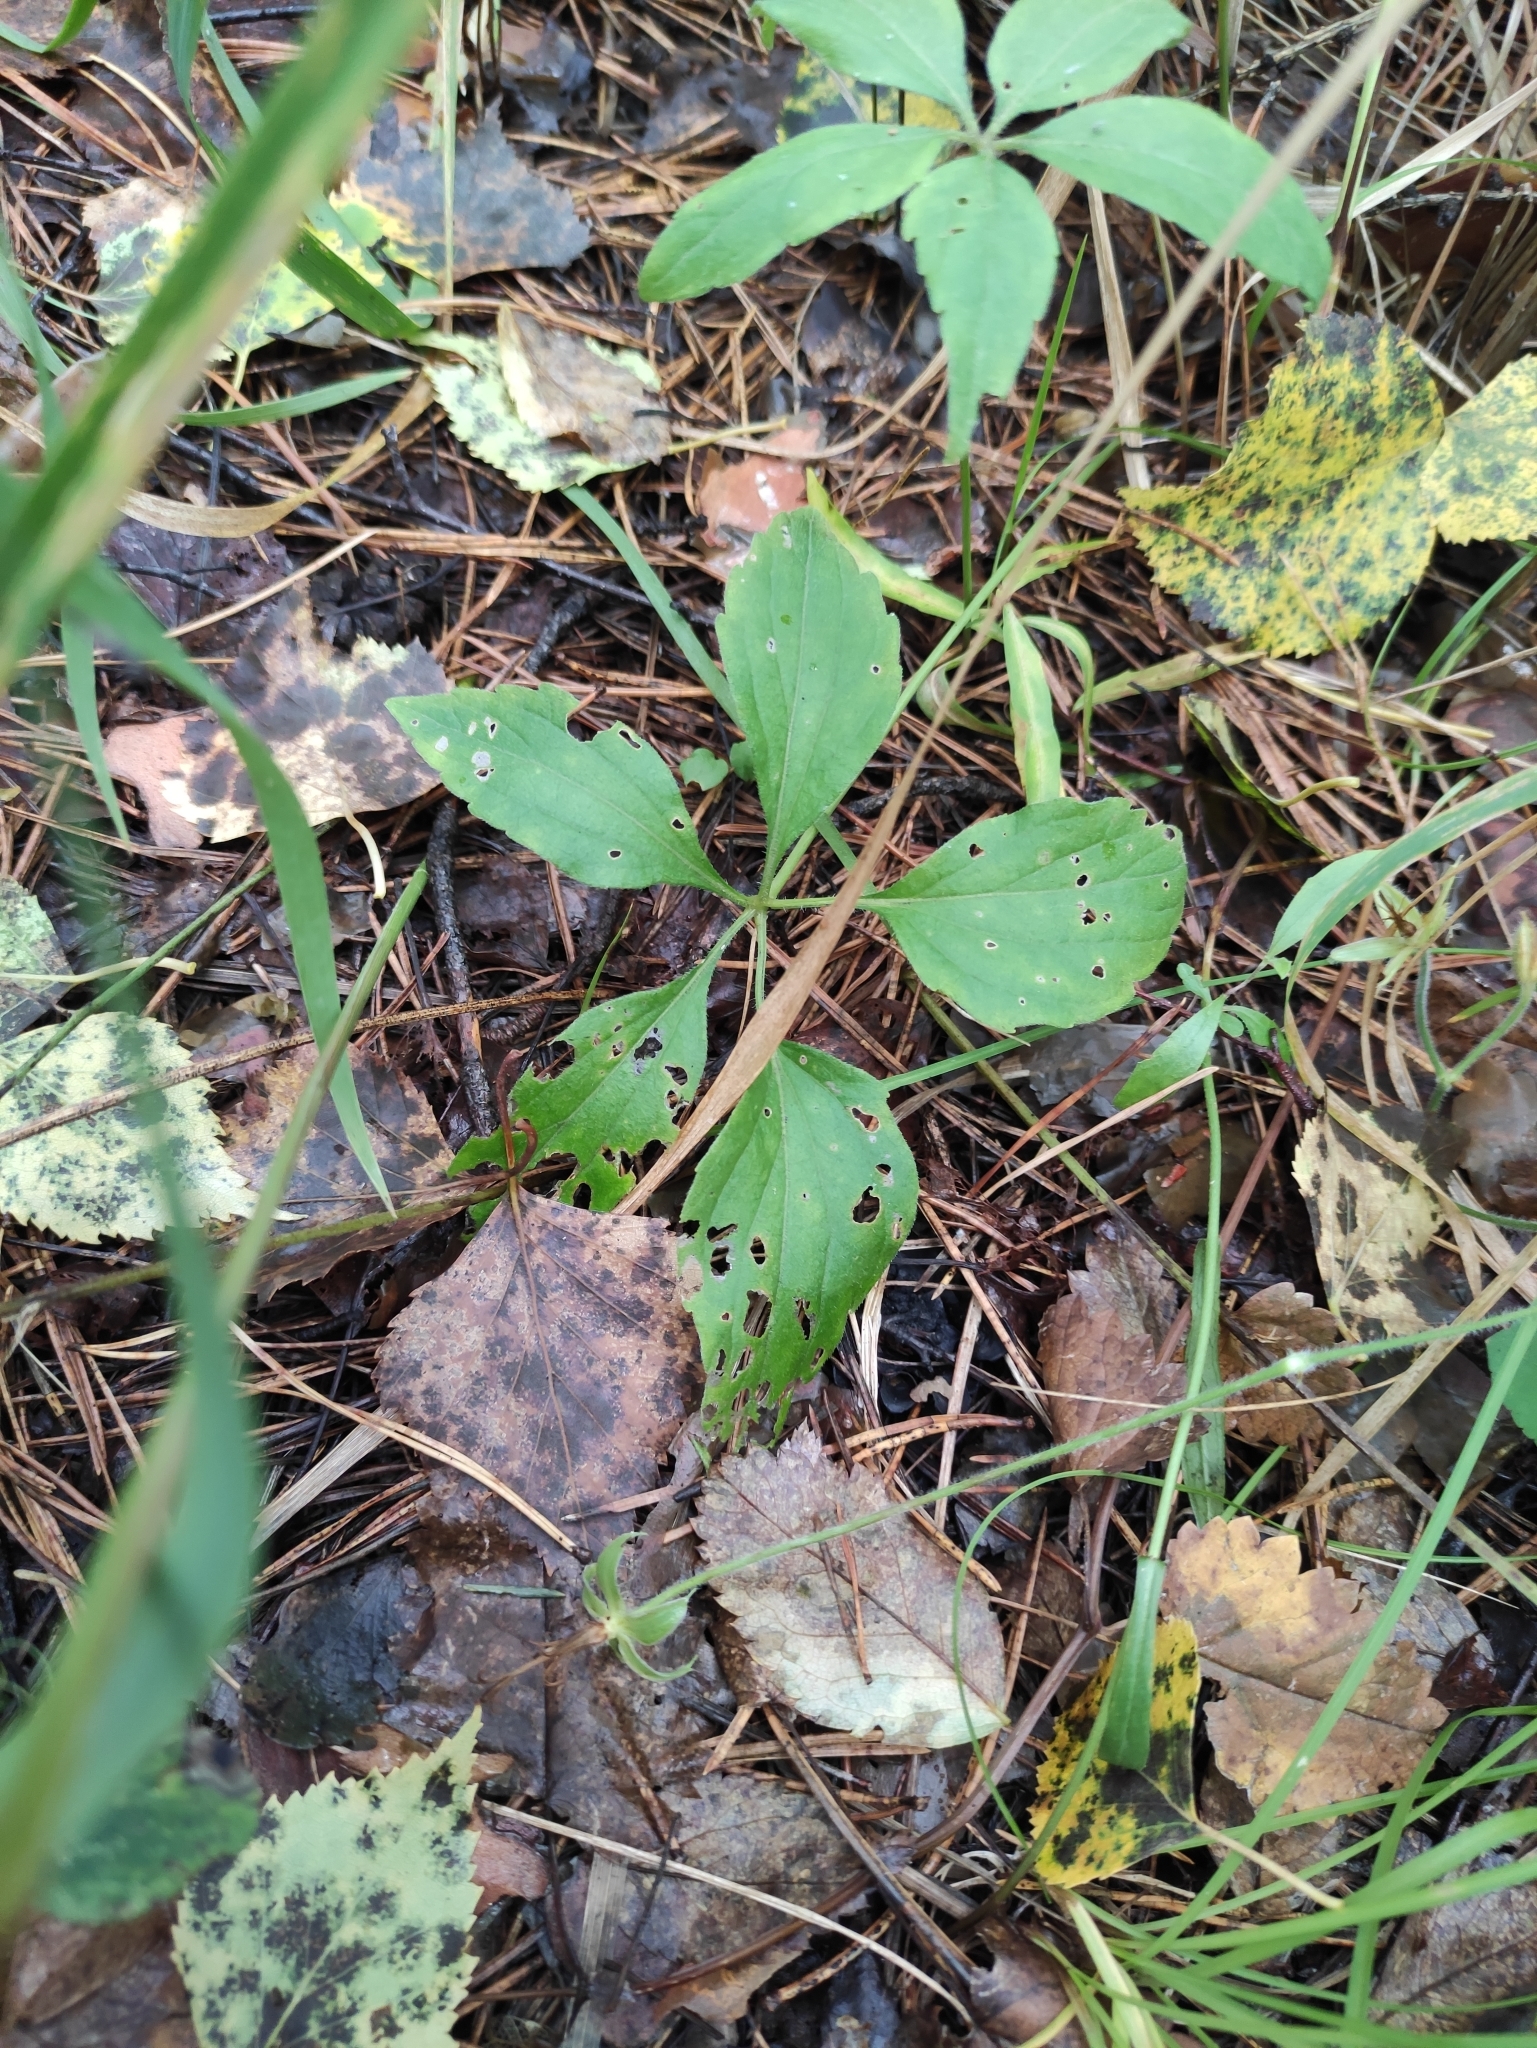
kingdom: Plantae
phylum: Tracheophyta
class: Magnoliopsida
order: Malpighiales
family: Violaceae
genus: Viola
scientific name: Viola dactyloides
